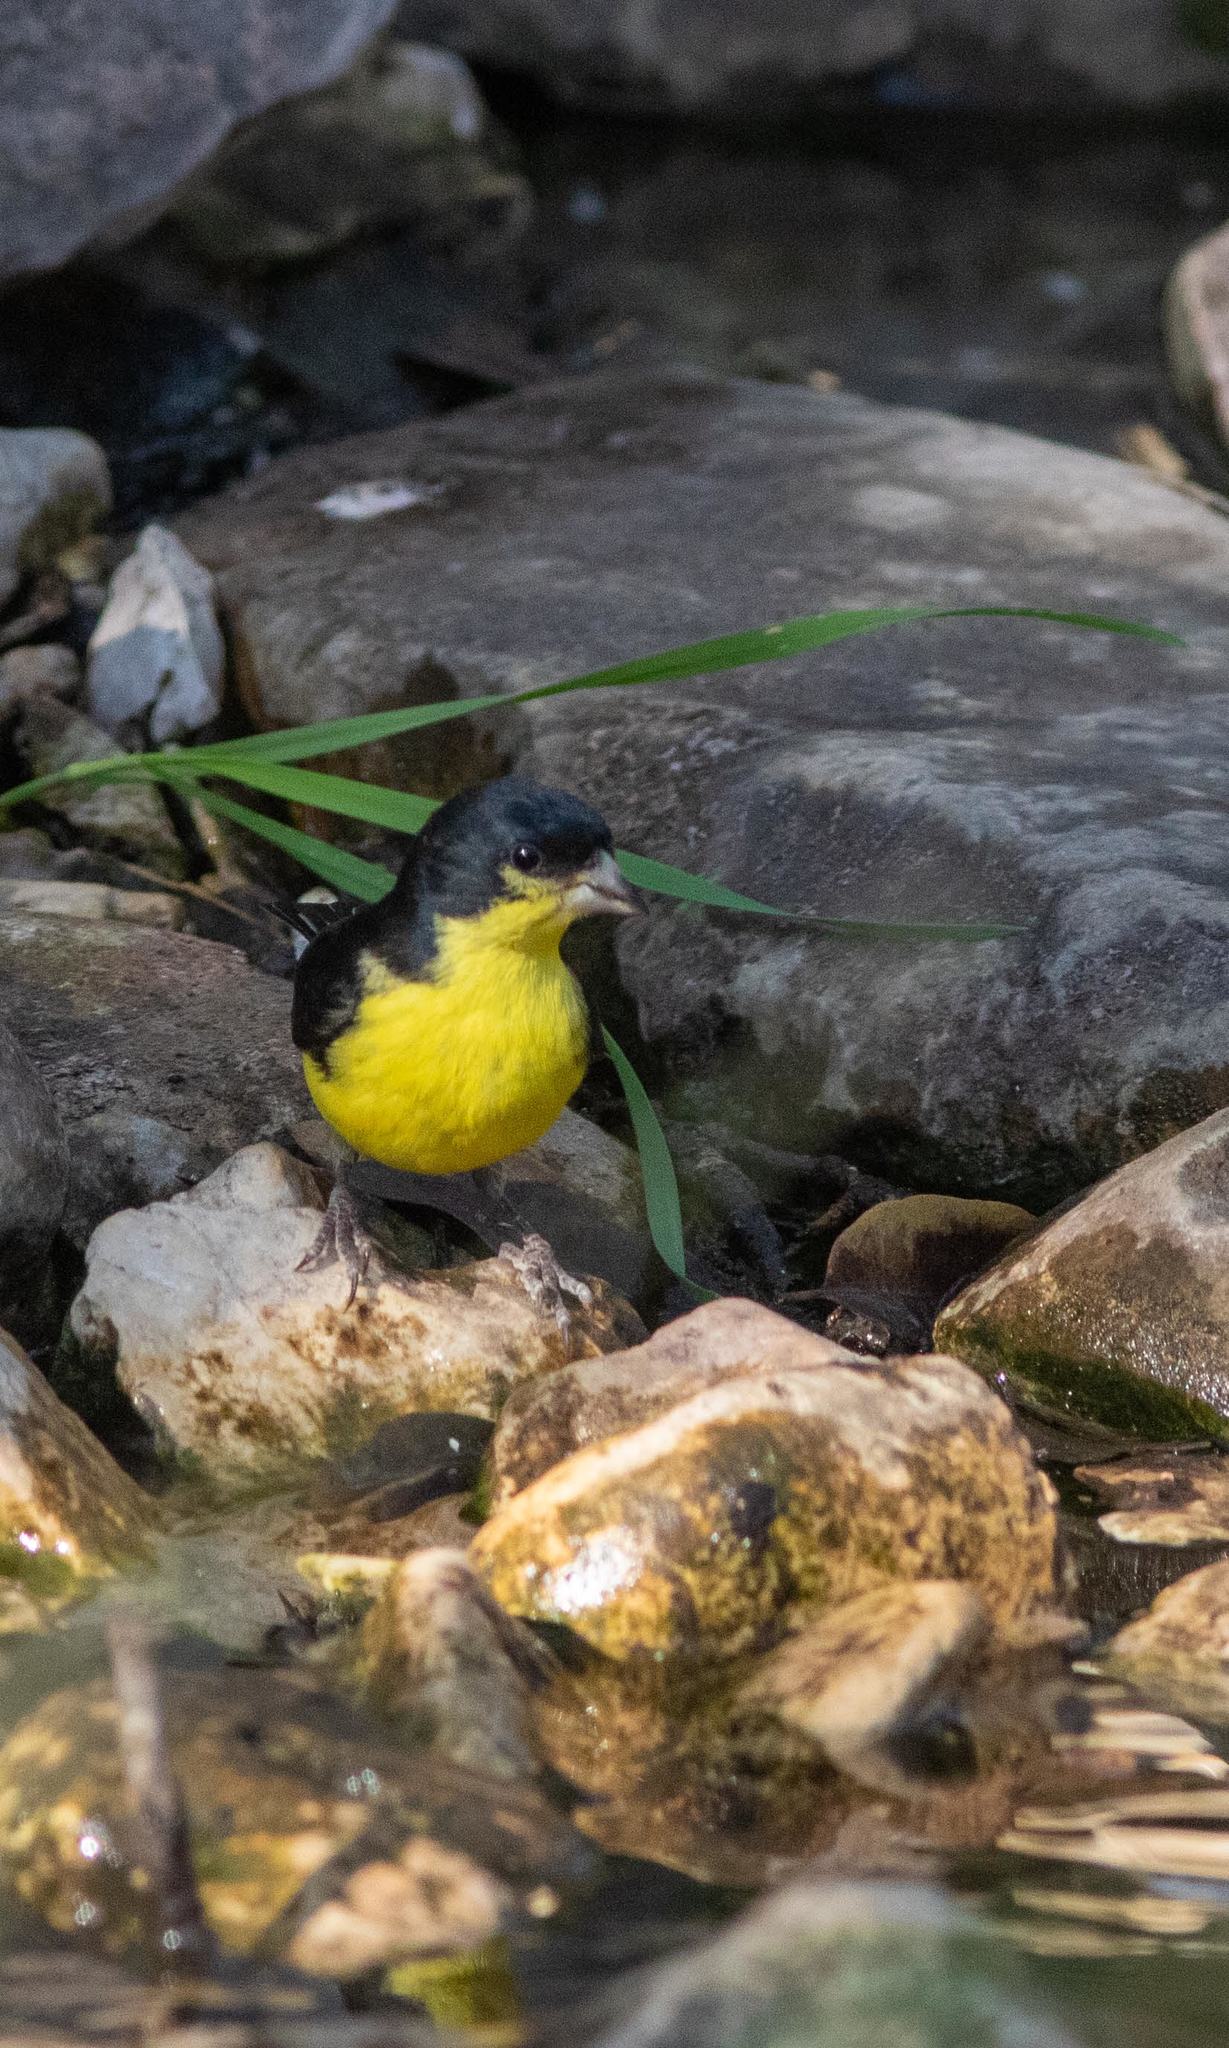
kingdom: Animalia
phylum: Chordata
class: Aves
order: Passeriformes
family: Fringillidae
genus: Spinus
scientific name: Spinus psaltria
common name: Lesser goldfinch
